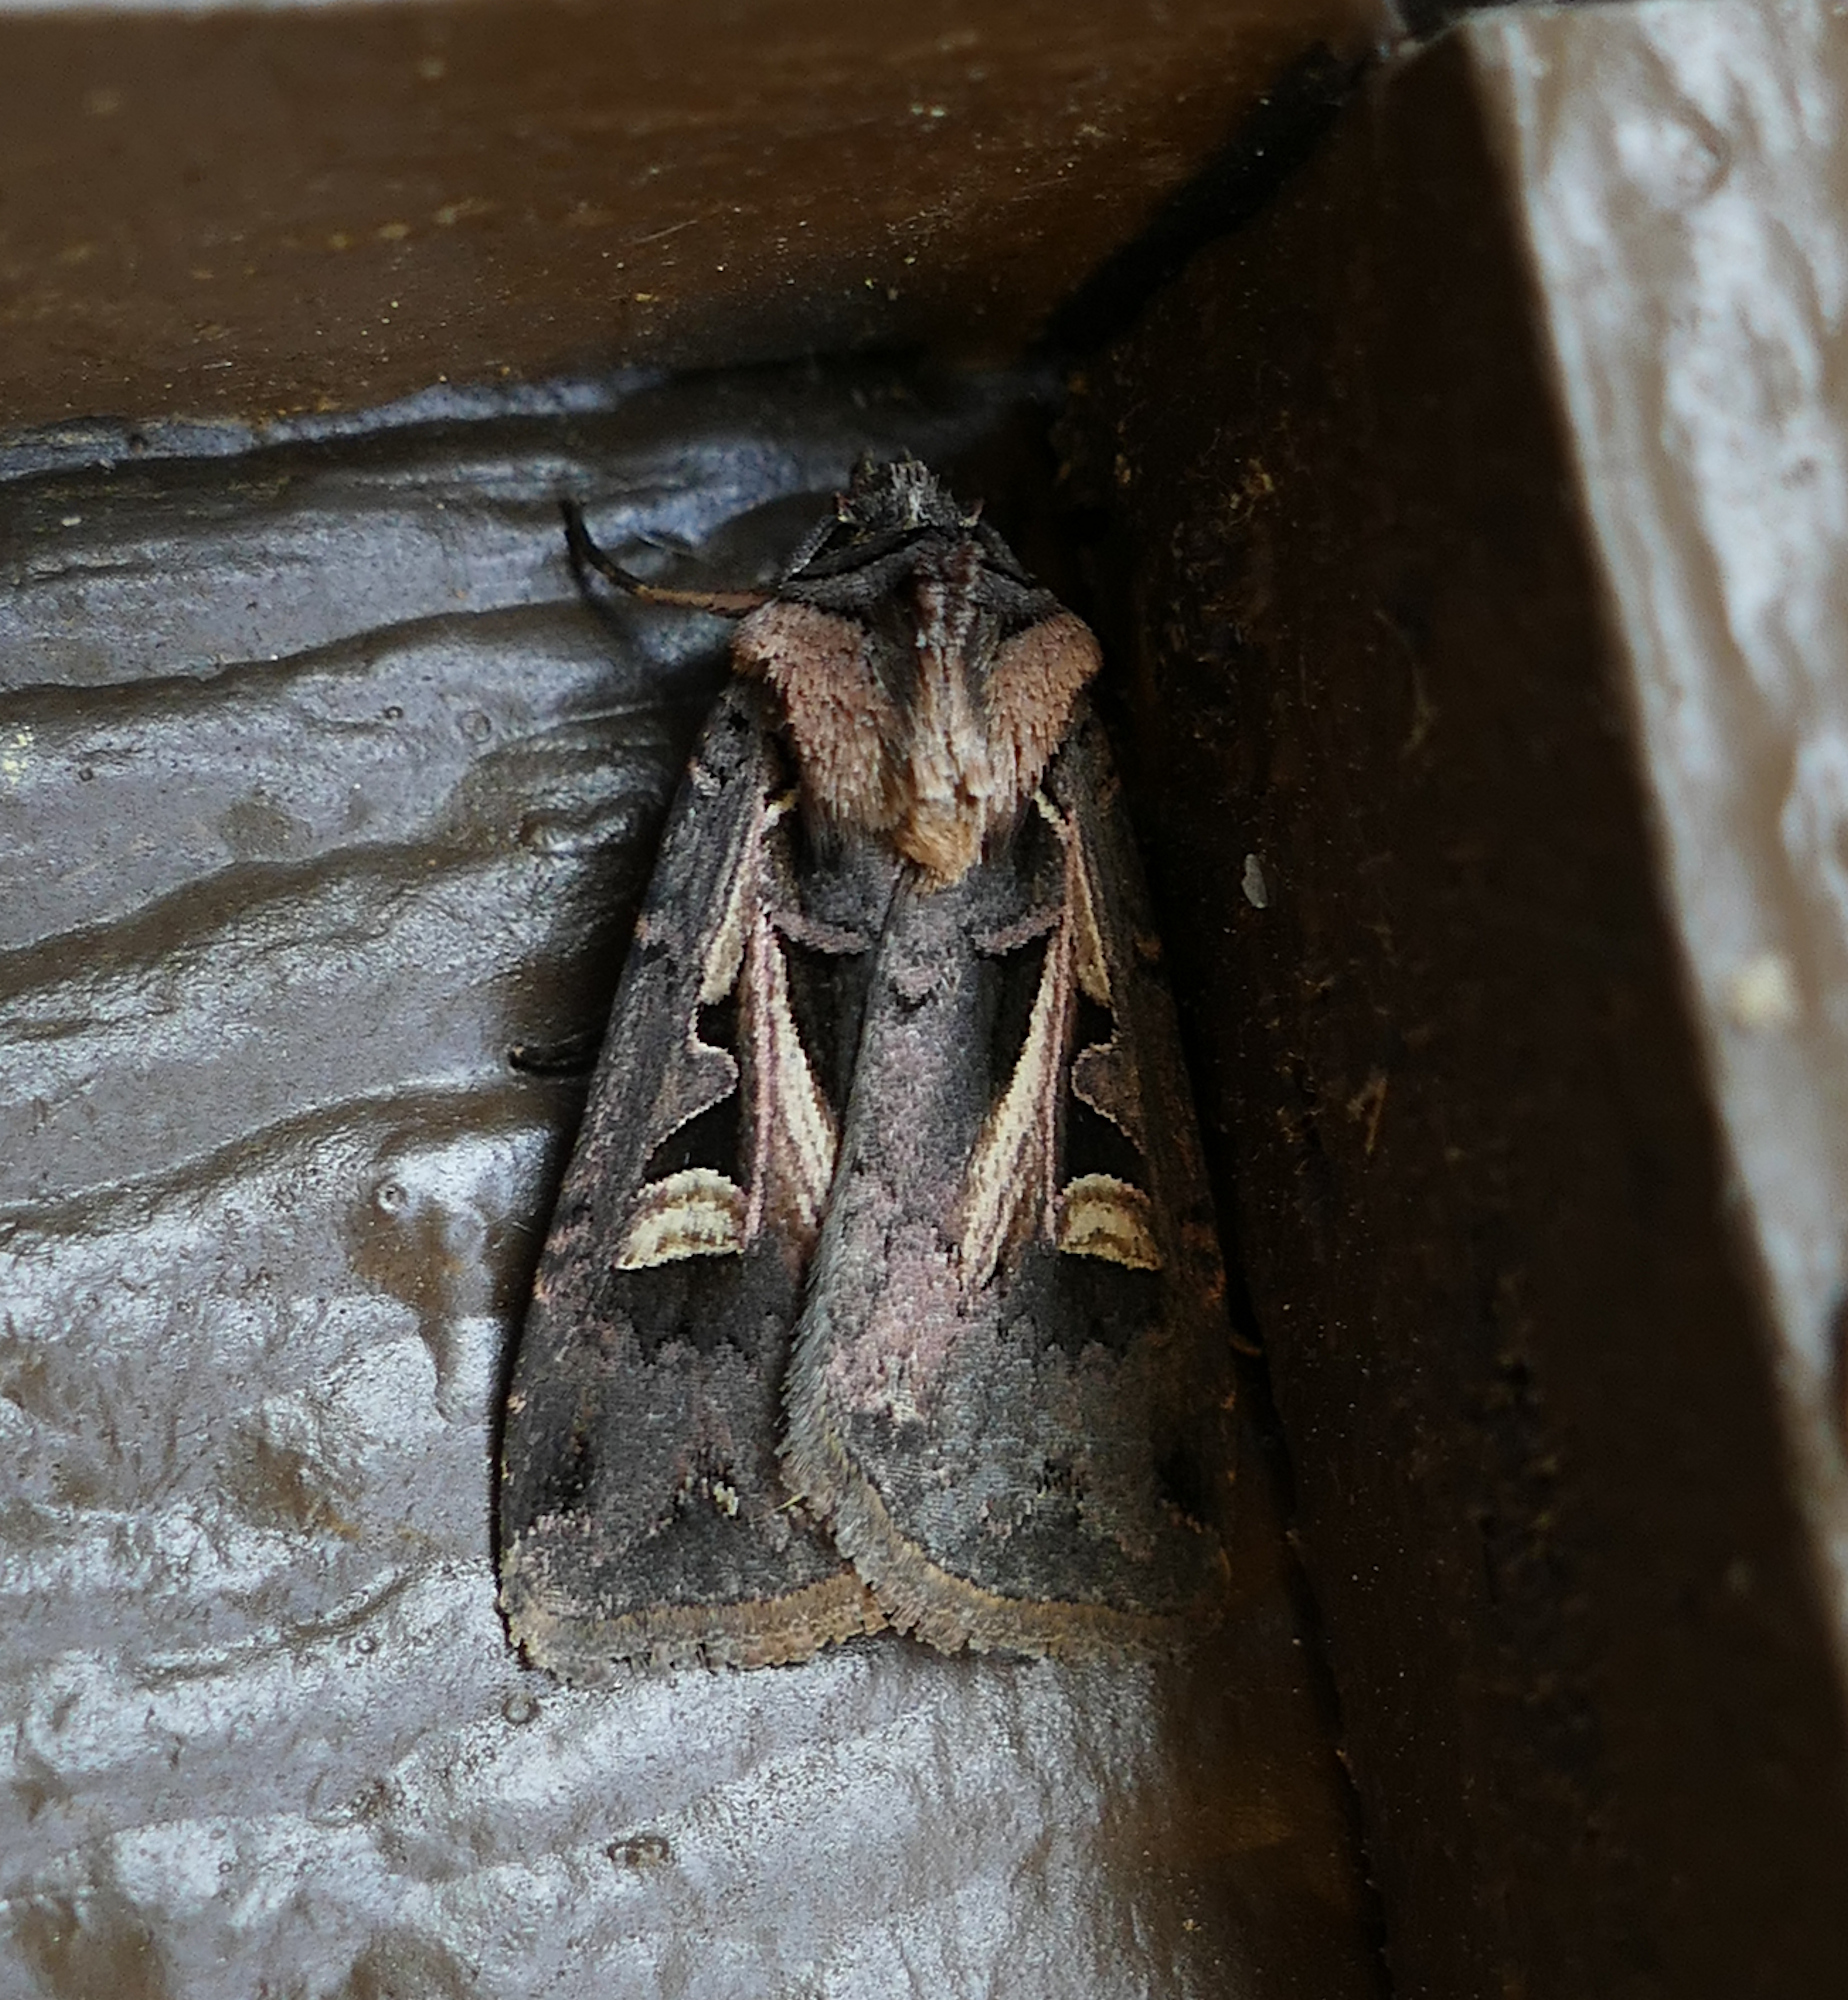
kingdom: Animalia
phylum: Arthropoda
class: Insecta
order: Lepidoptera
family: Noctuidae
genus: Feltia
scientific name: Feltia herilis
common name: Master's dart
